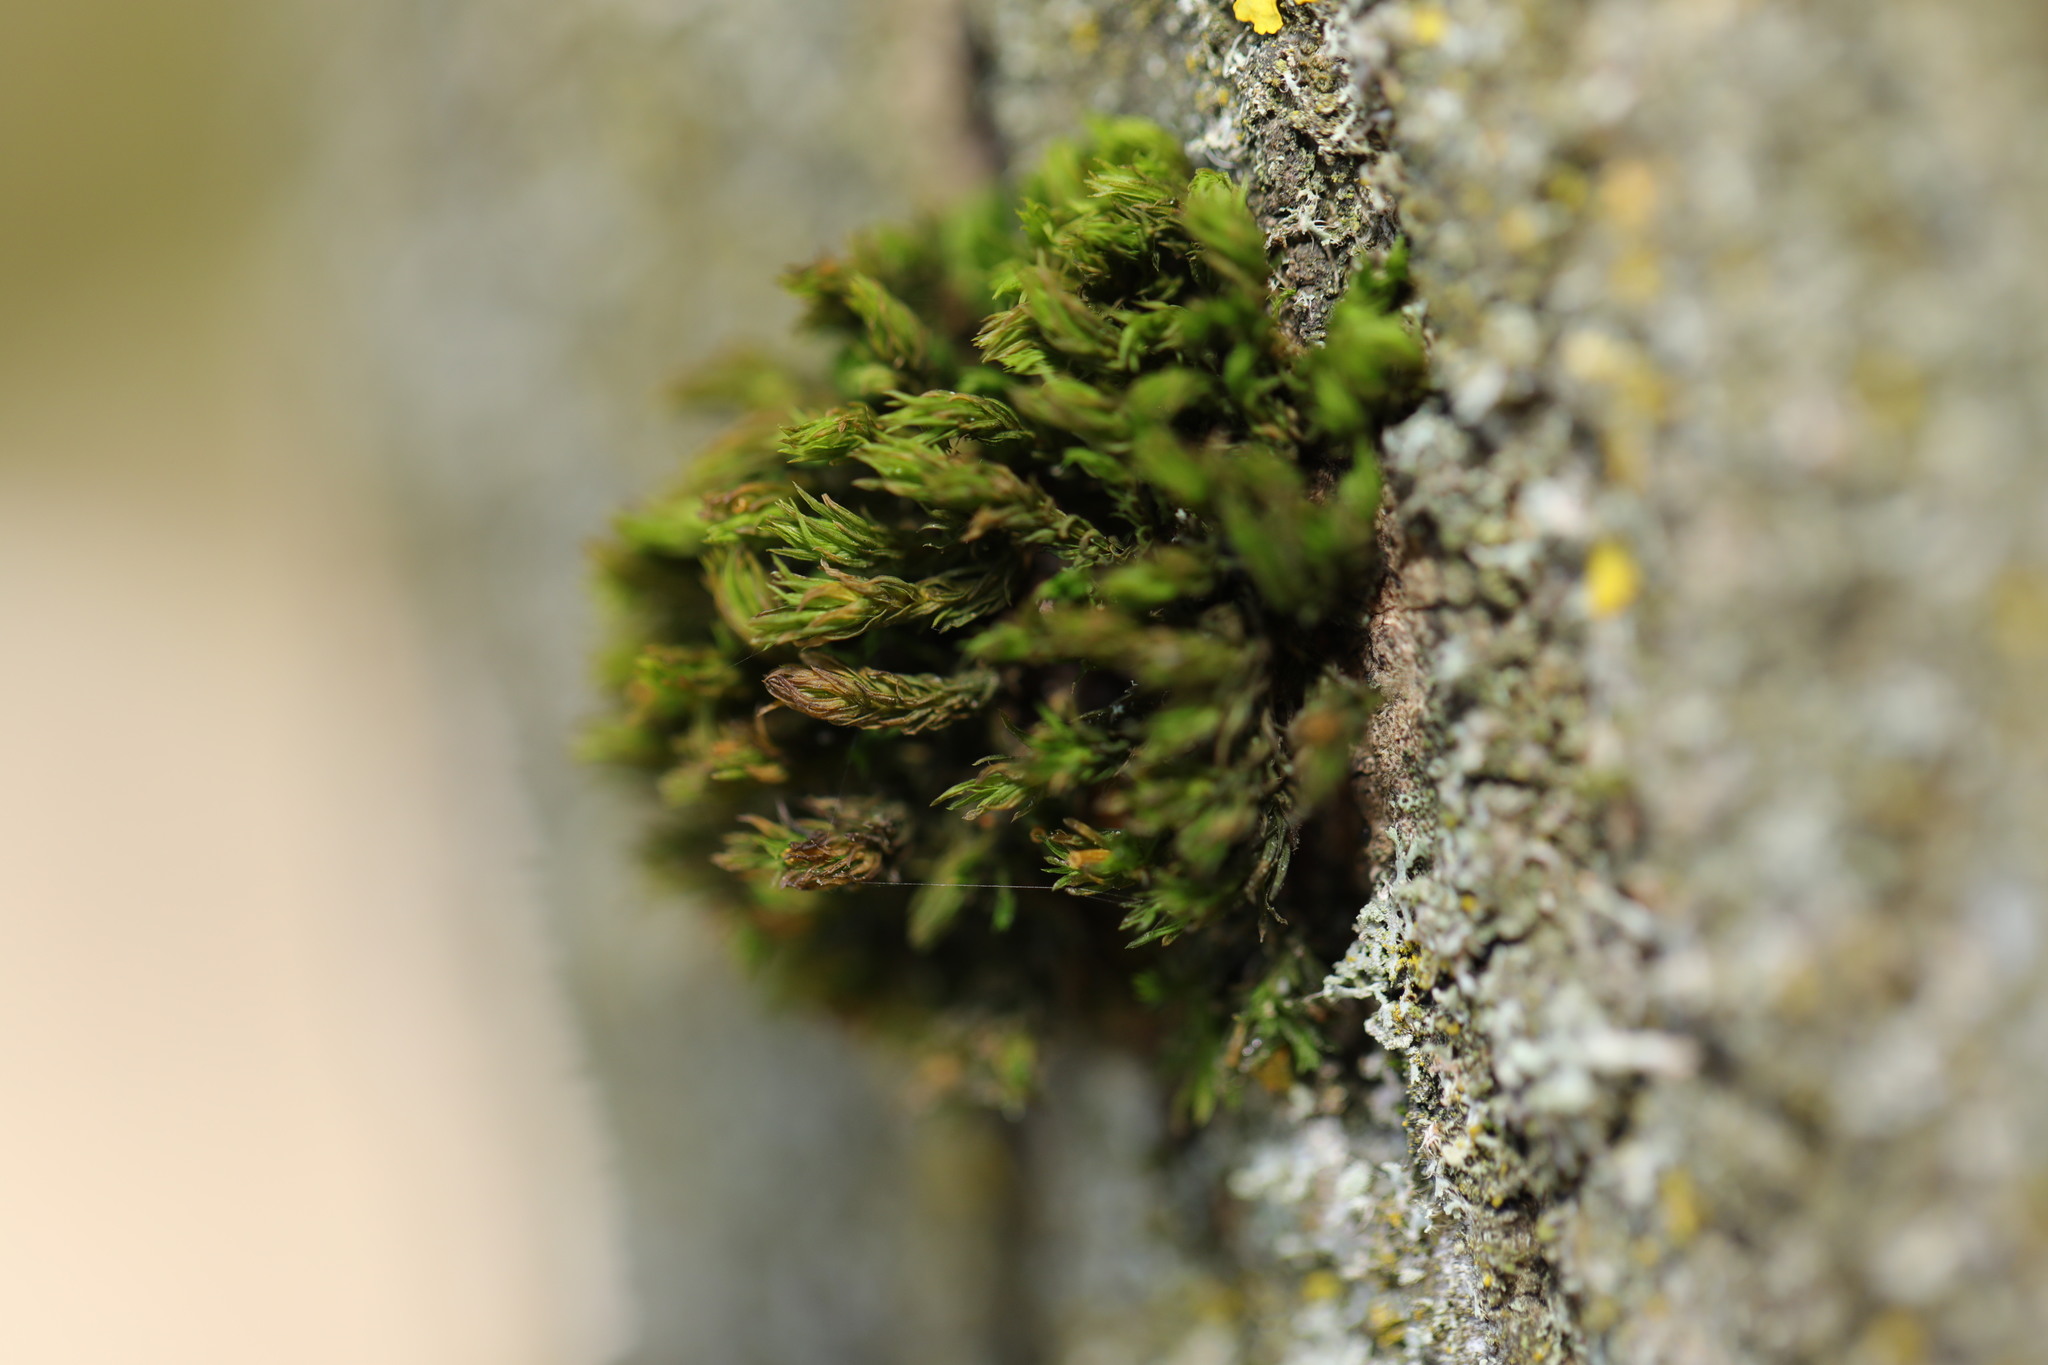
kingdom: Plantae
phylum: Bryophyta
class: Bryopsida
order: Orthotrichales
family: Orthotrichaceae
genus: Lewinskya
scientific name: Lewinskya affinis
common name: Wood bristle-moss
